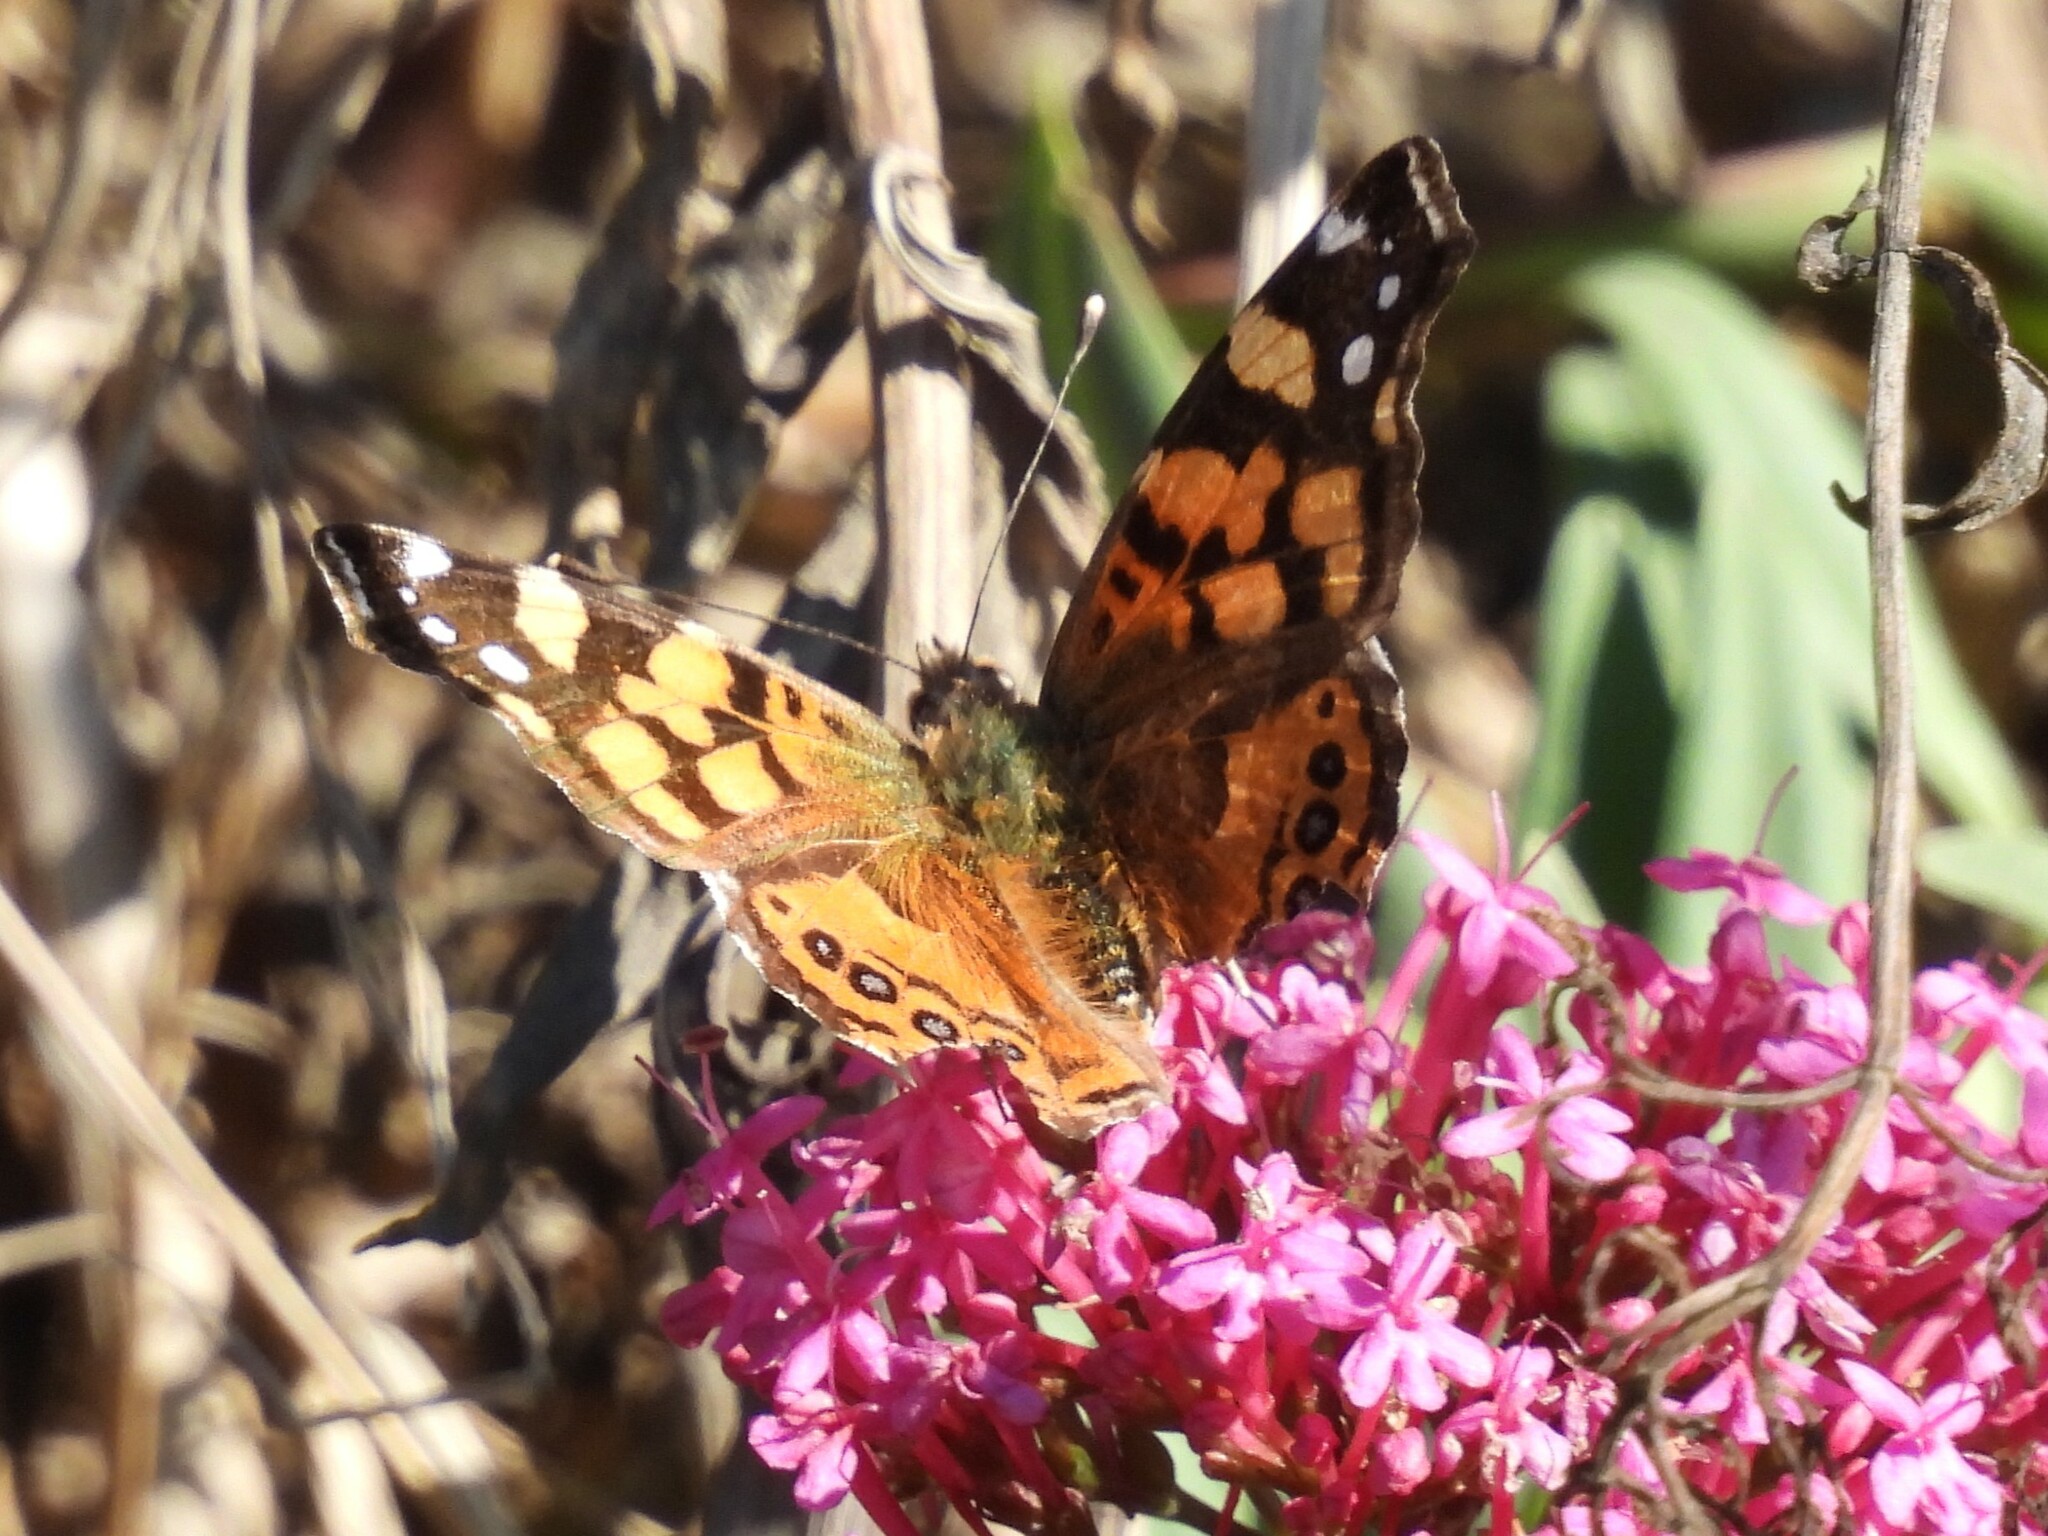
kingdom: Animalia
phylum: Arthropoda
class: Insecta
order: Lepidoptera
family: Nymphalidae
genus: Vanessa
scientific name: Vanessa annabella
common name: West coast lady
